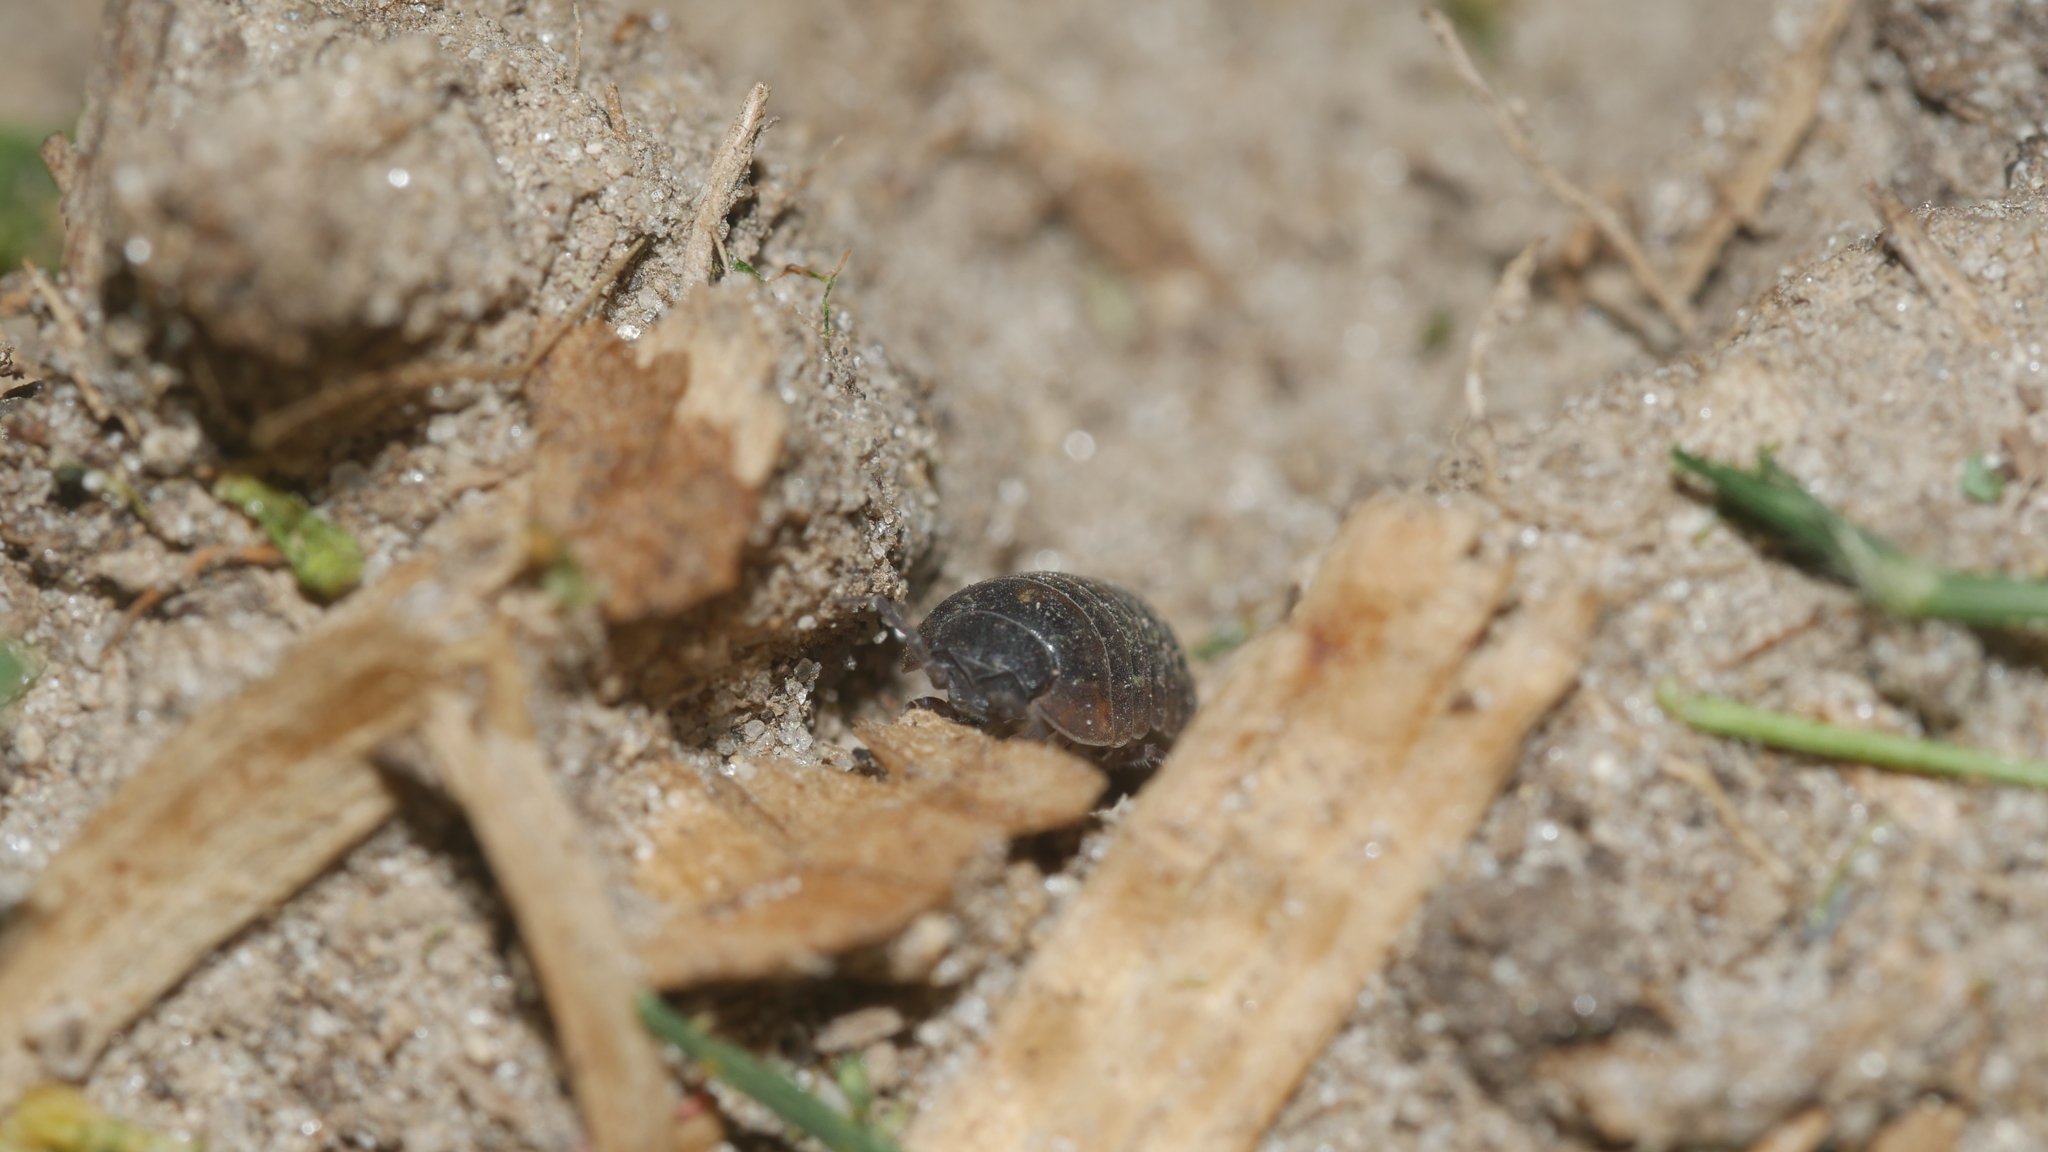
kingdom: Animalia
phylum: Arthropoda
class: Malacostraca
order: Isopoda
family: Armadillidiidae
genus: Armadillidium
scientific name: Armadillidium vulgare
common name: Common pill woodlouse
